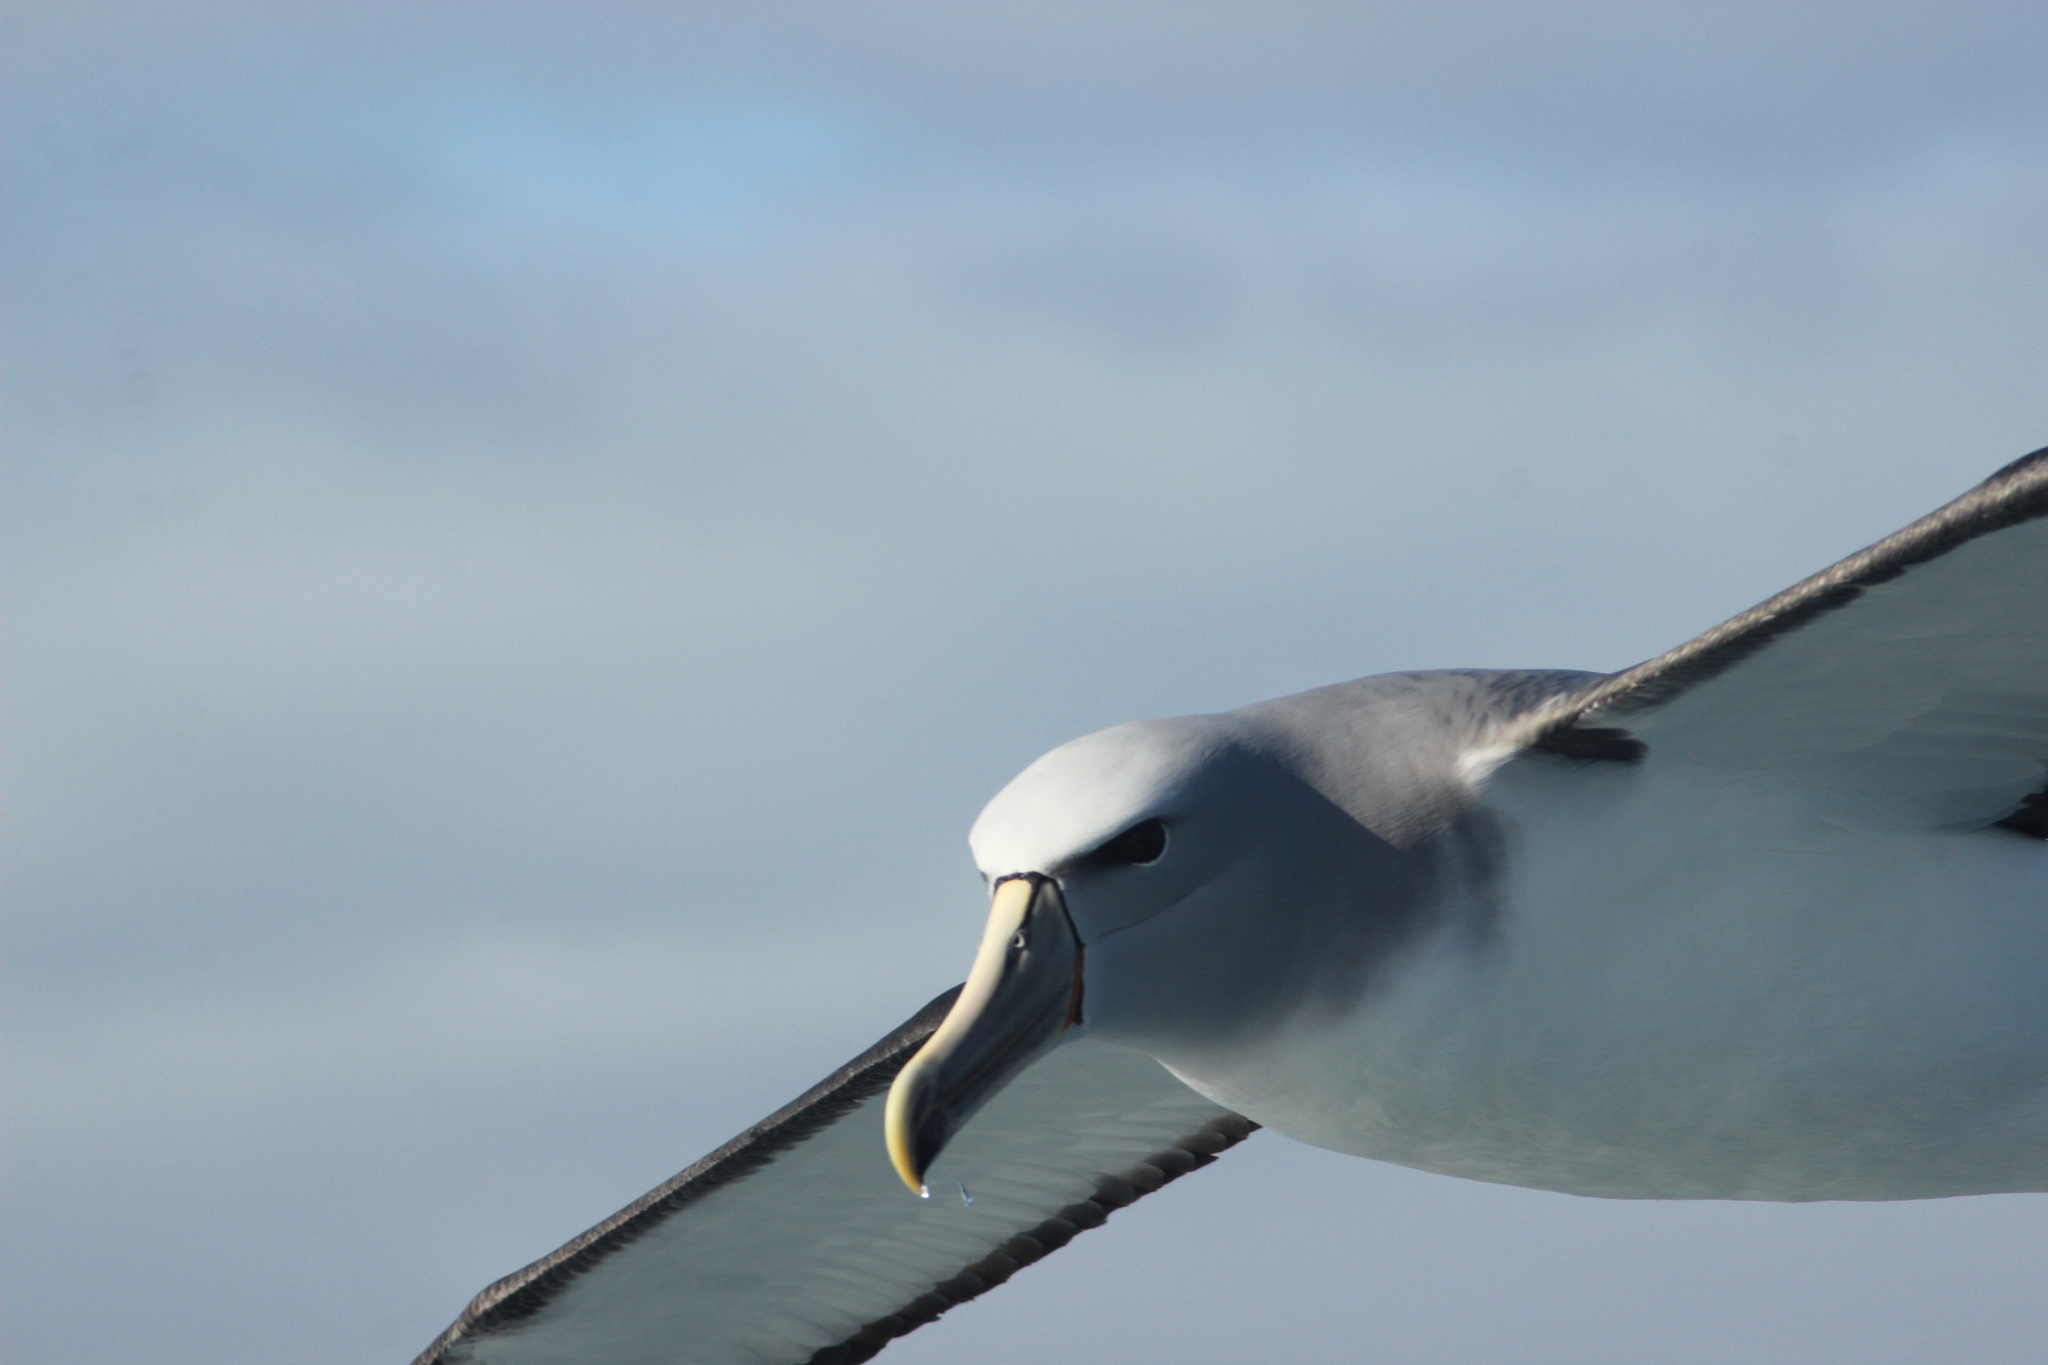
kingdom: Animalia
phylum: Chordata
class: Aves
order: Procellariiformes
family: Diomedeidae
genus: Thalassarche
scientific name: Thalassarche salvini
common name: Salvin's albatross
